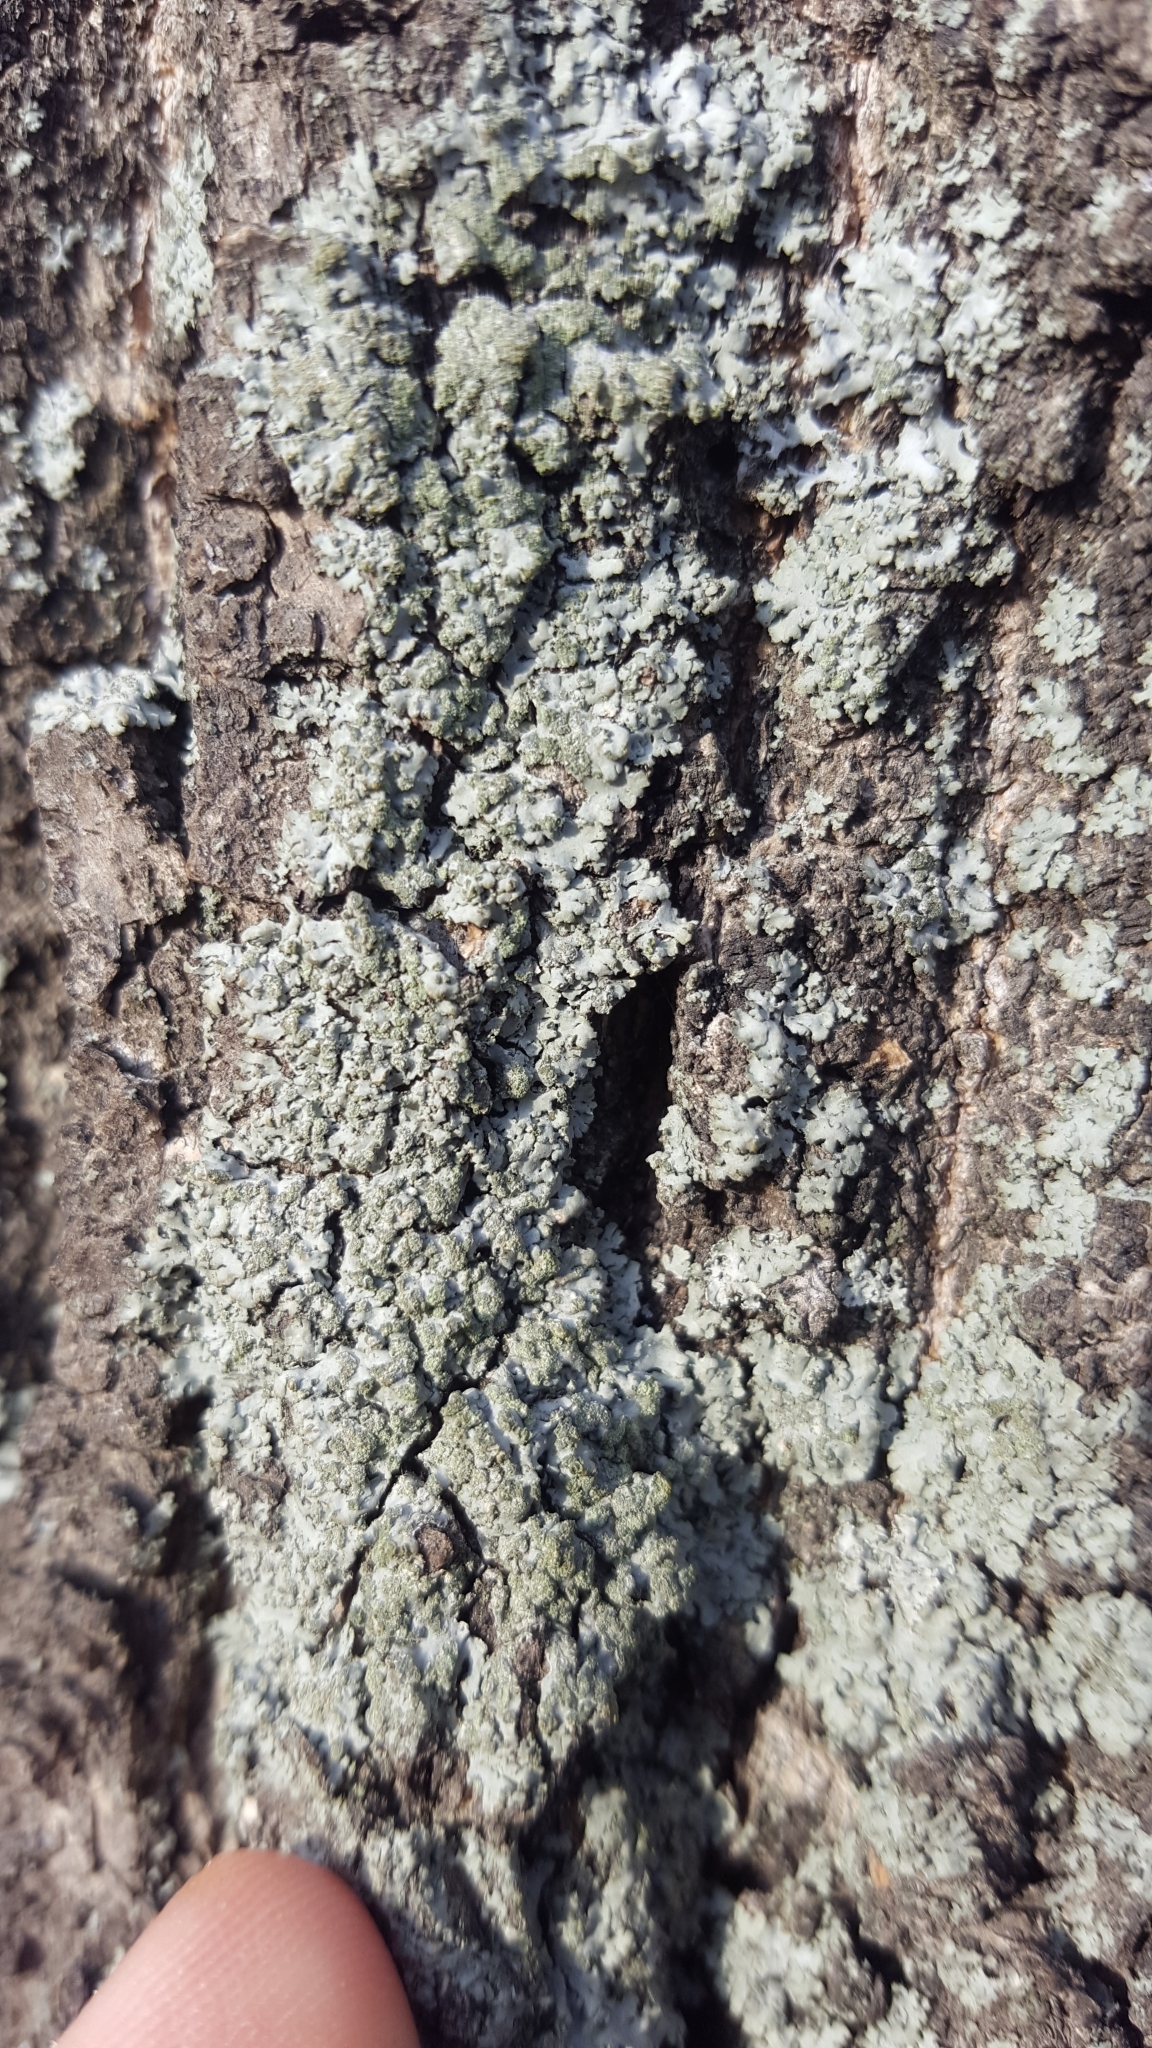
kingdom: Fungi
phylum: Ascomycota
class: Lecanoromycetes
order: Caliciales
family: Physciaceae
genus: Phaeophyscia
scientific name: Phaeophyscia orbicularis
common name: Mealy shadow lichen
